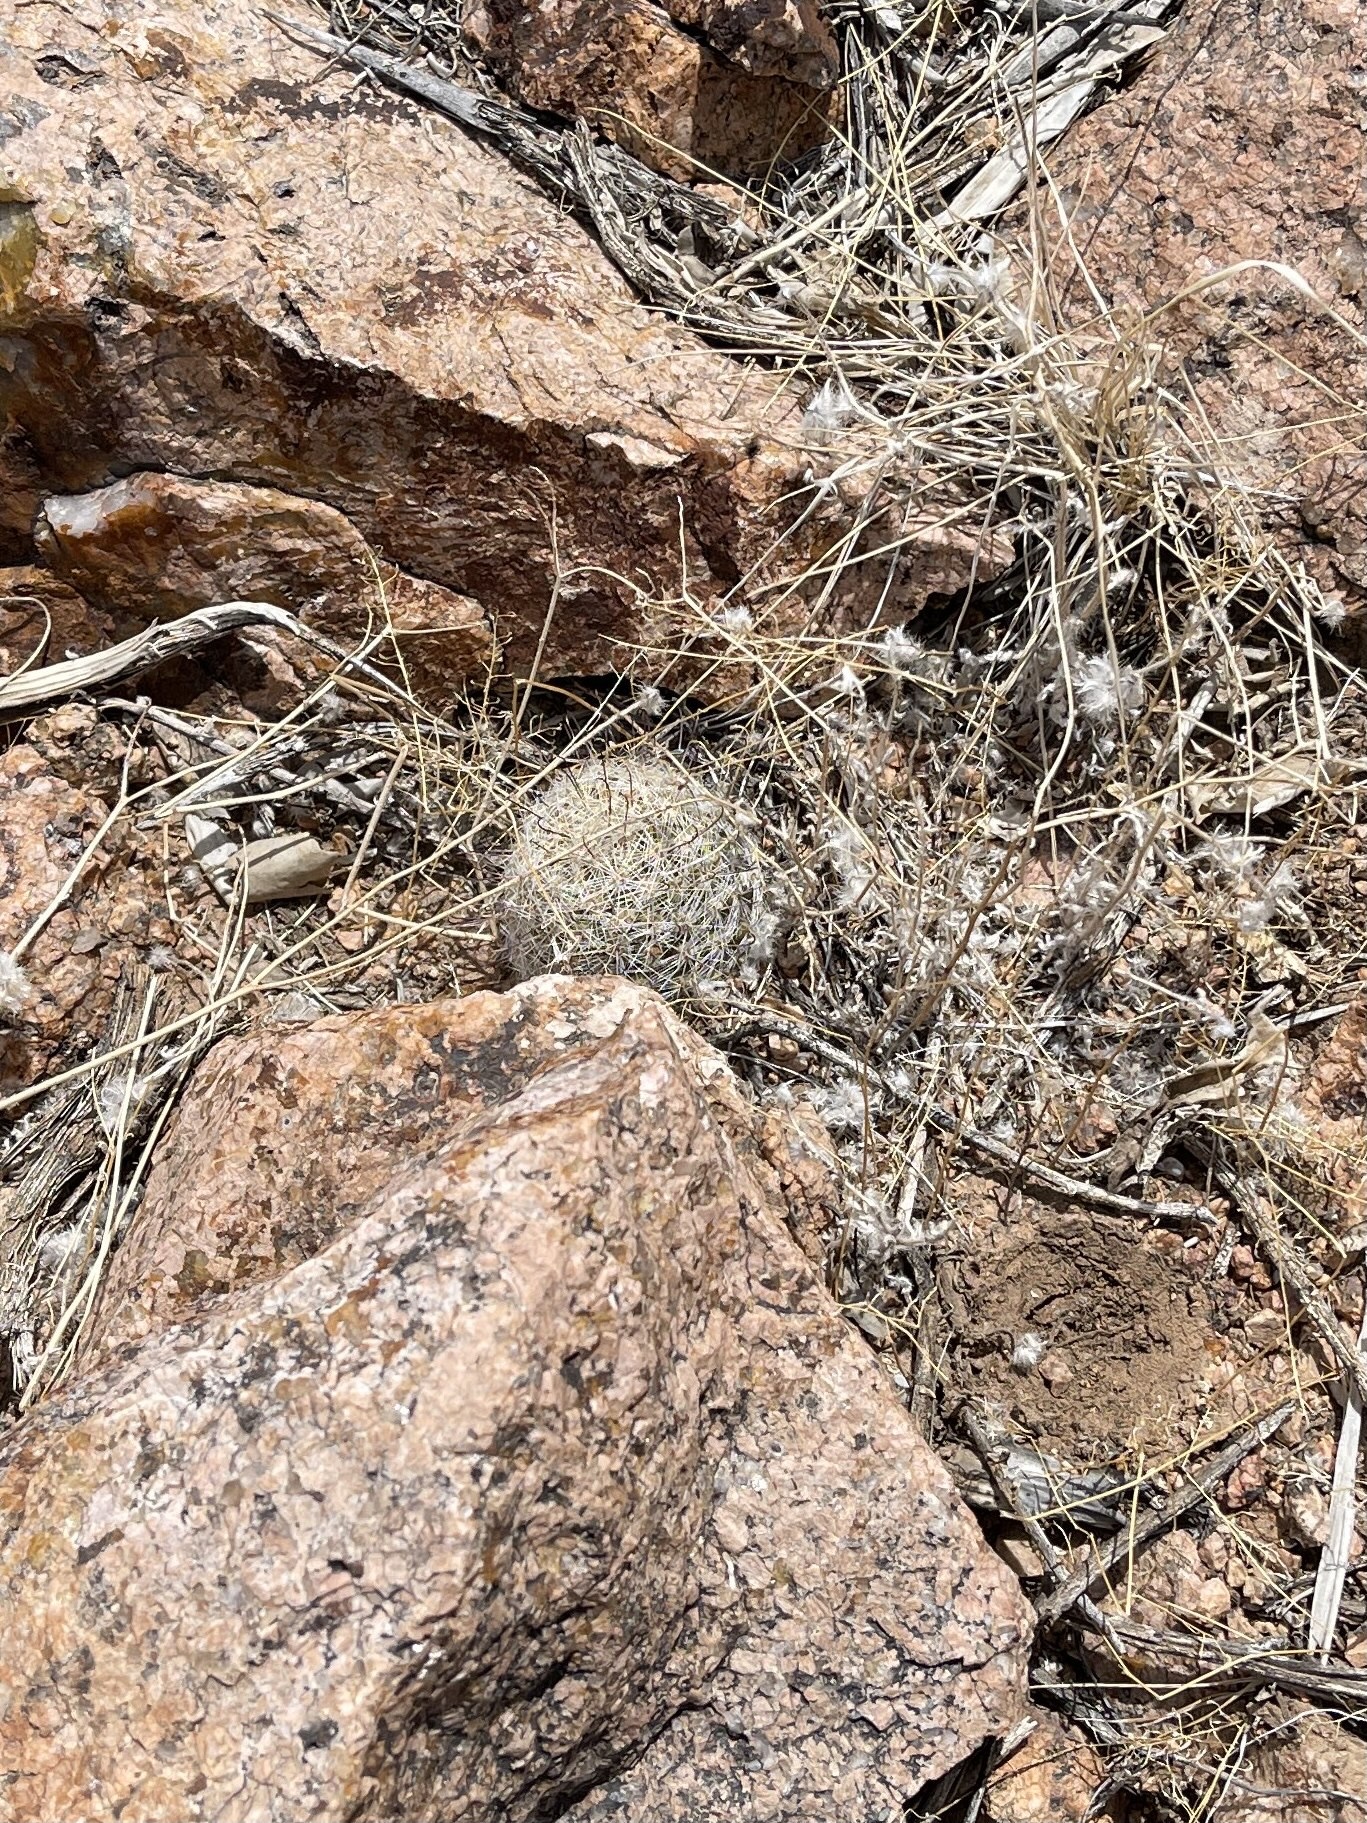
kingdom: Plantae
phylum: Tracheophyta
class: Magnoliopsida
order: Caryophyllales
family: Cactaceae
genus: Cochemiea
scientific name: Cochemiea grahamii
